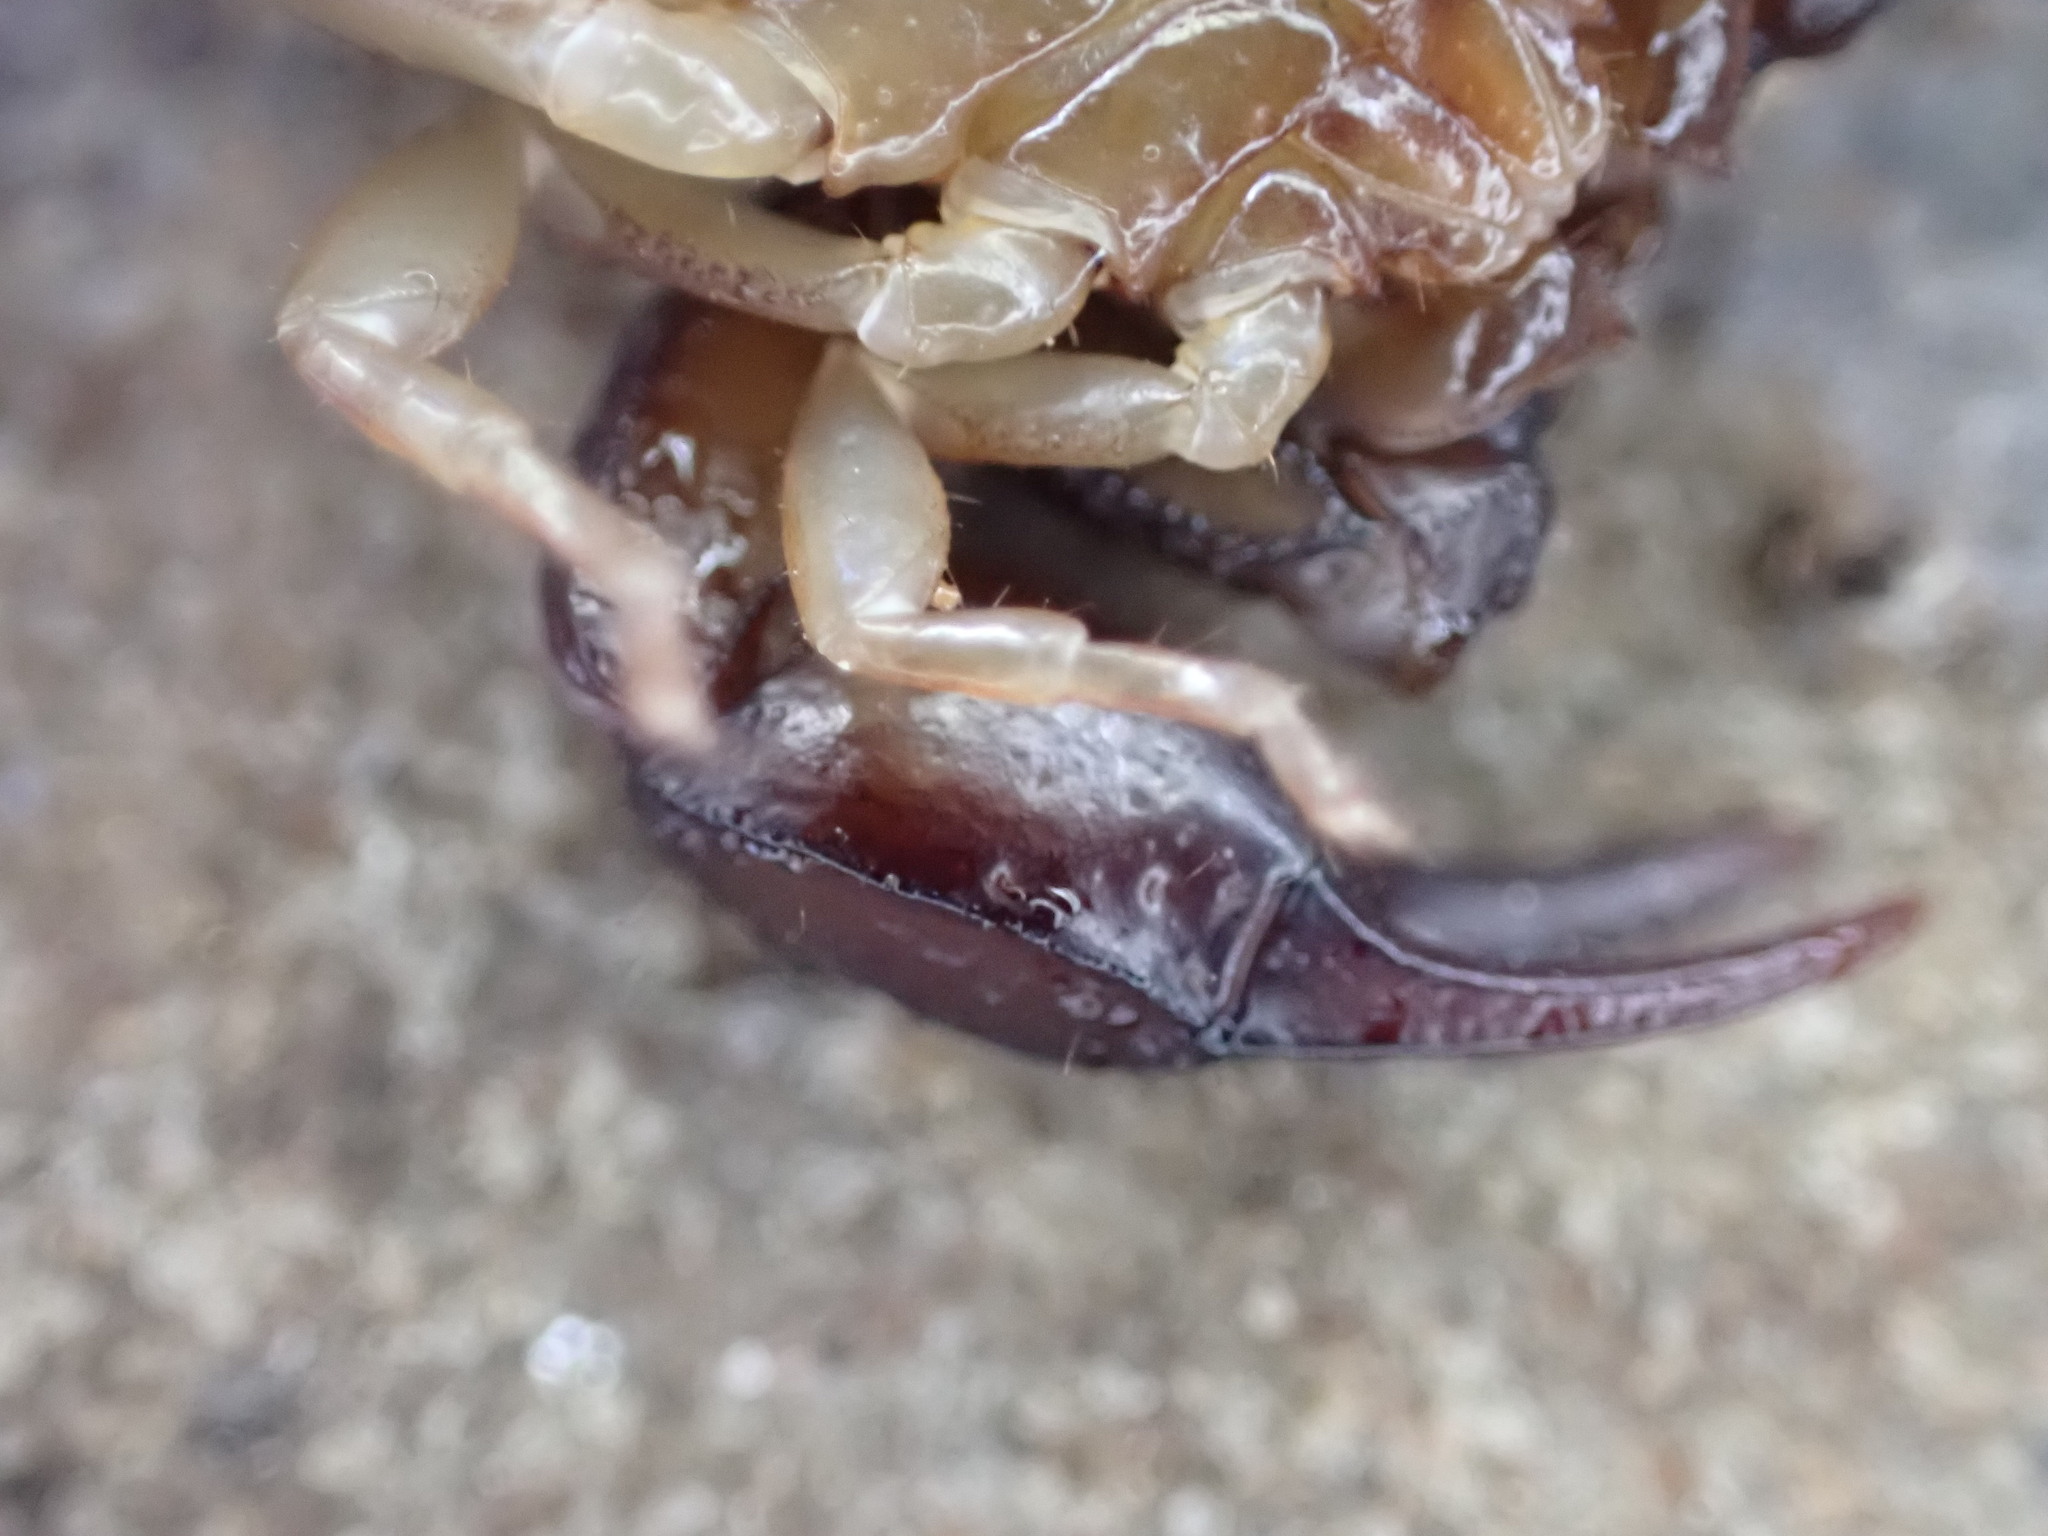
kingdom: Animalia
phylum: Arthropoda
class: Arachnida
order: Scorpiones
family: Euscorpiidae
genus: Euscorpius
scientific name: Euscorpius niciensis
